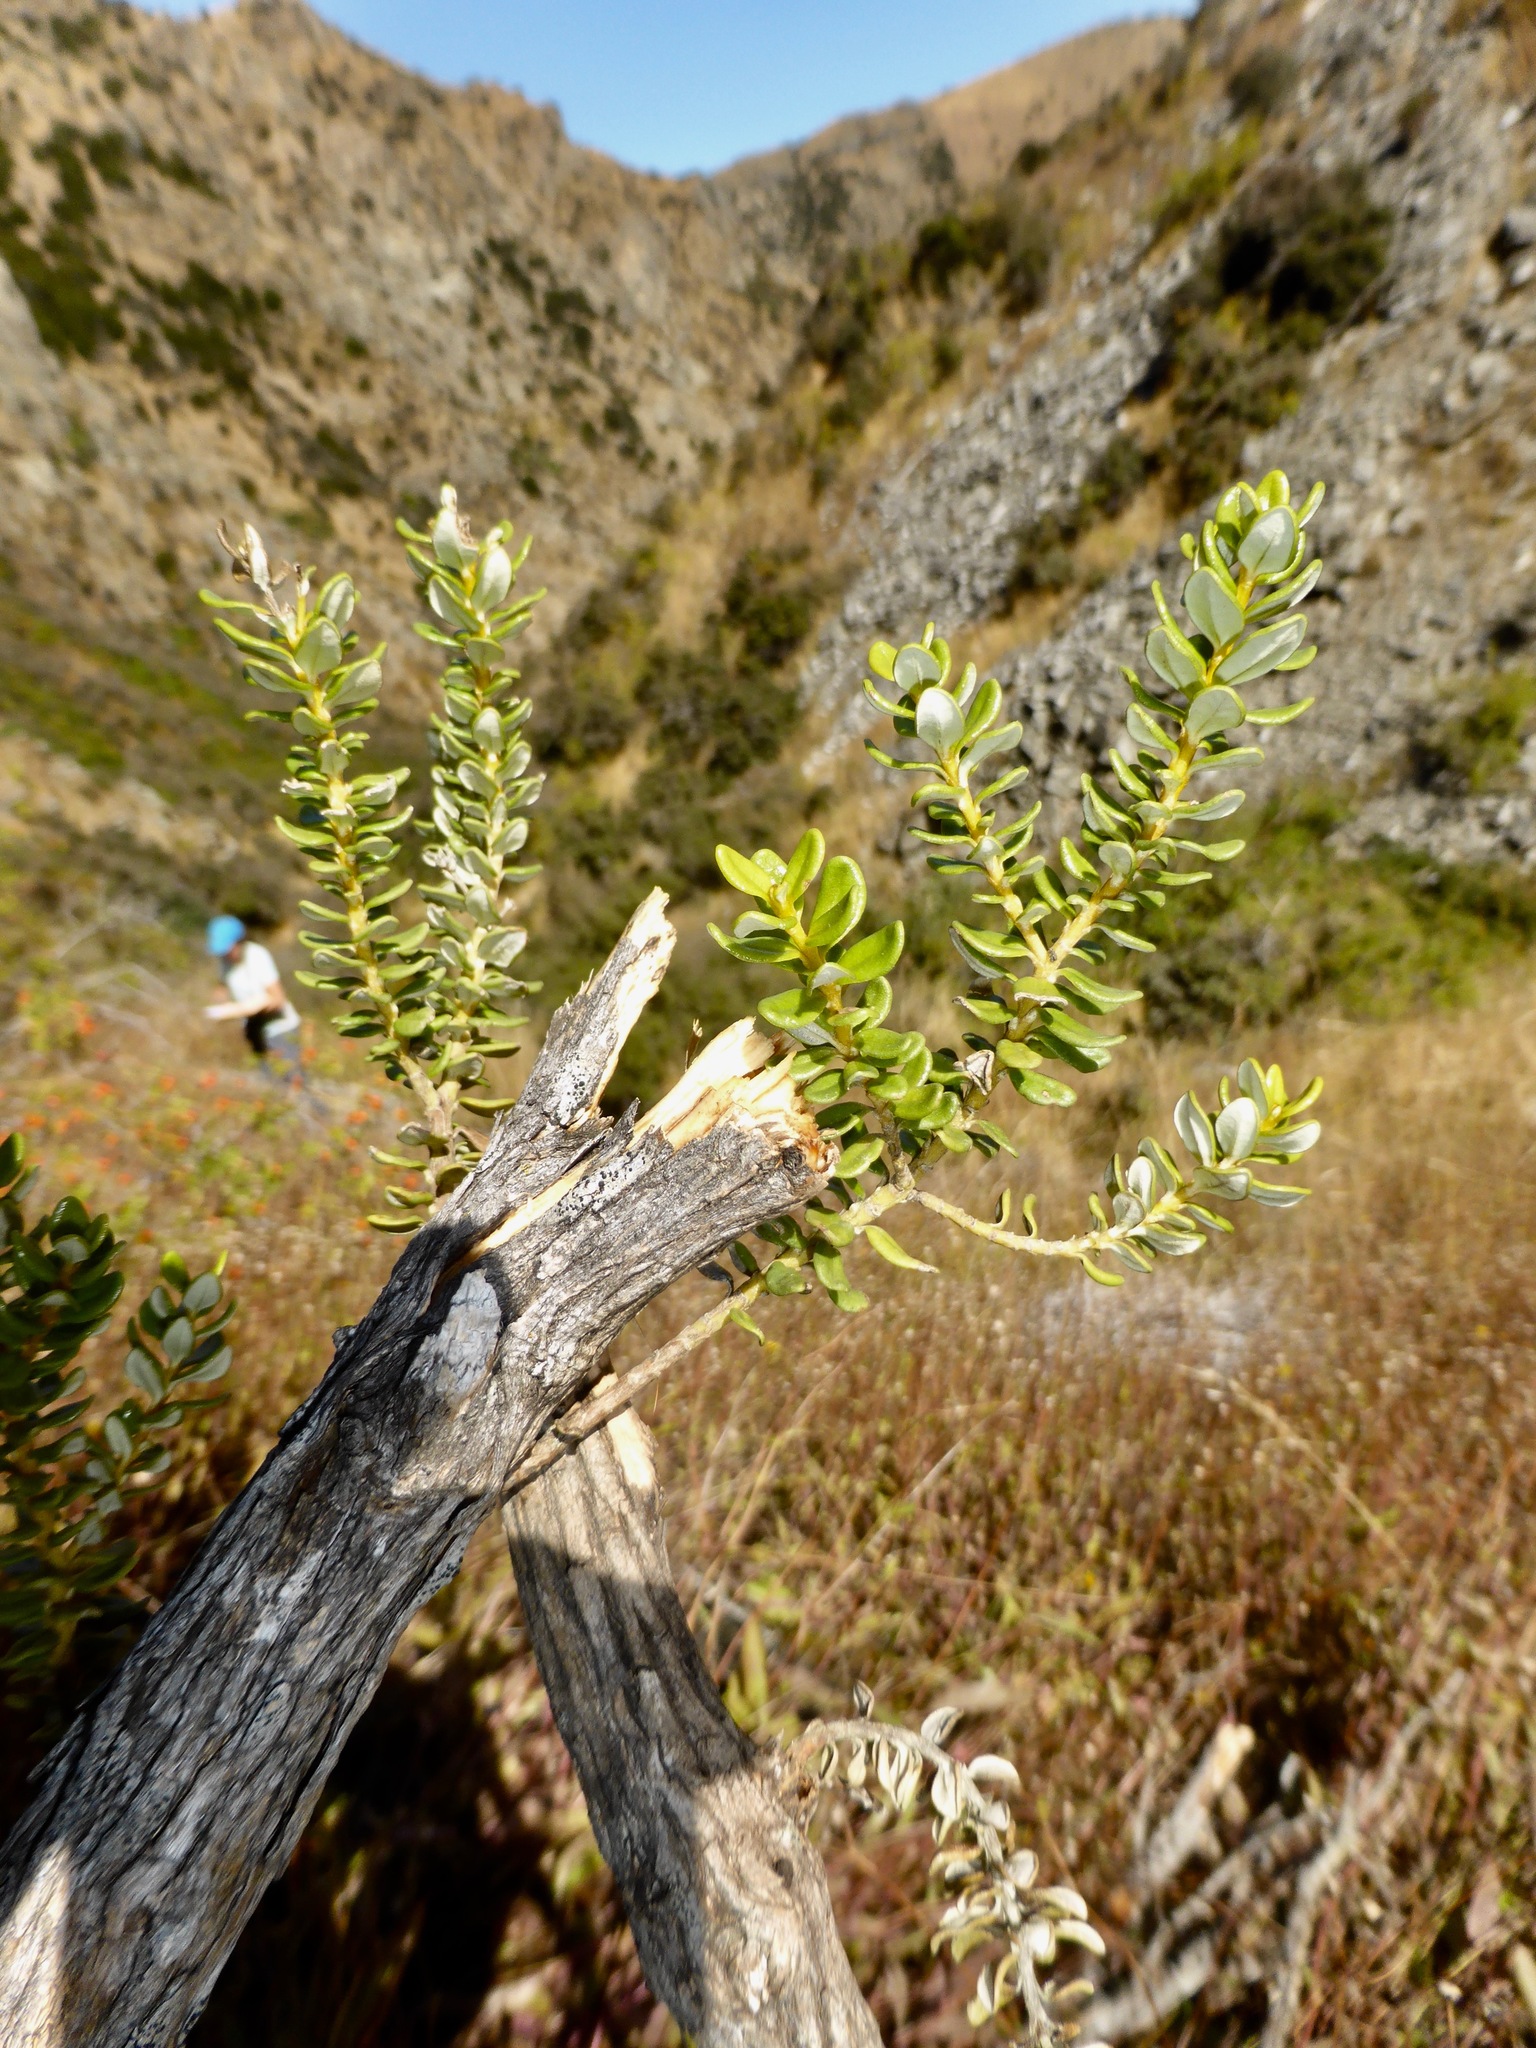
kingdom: Plantae
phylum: Tracheophyta
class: Magnoliopsida
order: Asterales
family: Asteraceae
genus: Olearia
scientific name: Olearia nummularifolia
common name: Sticky daisybush
